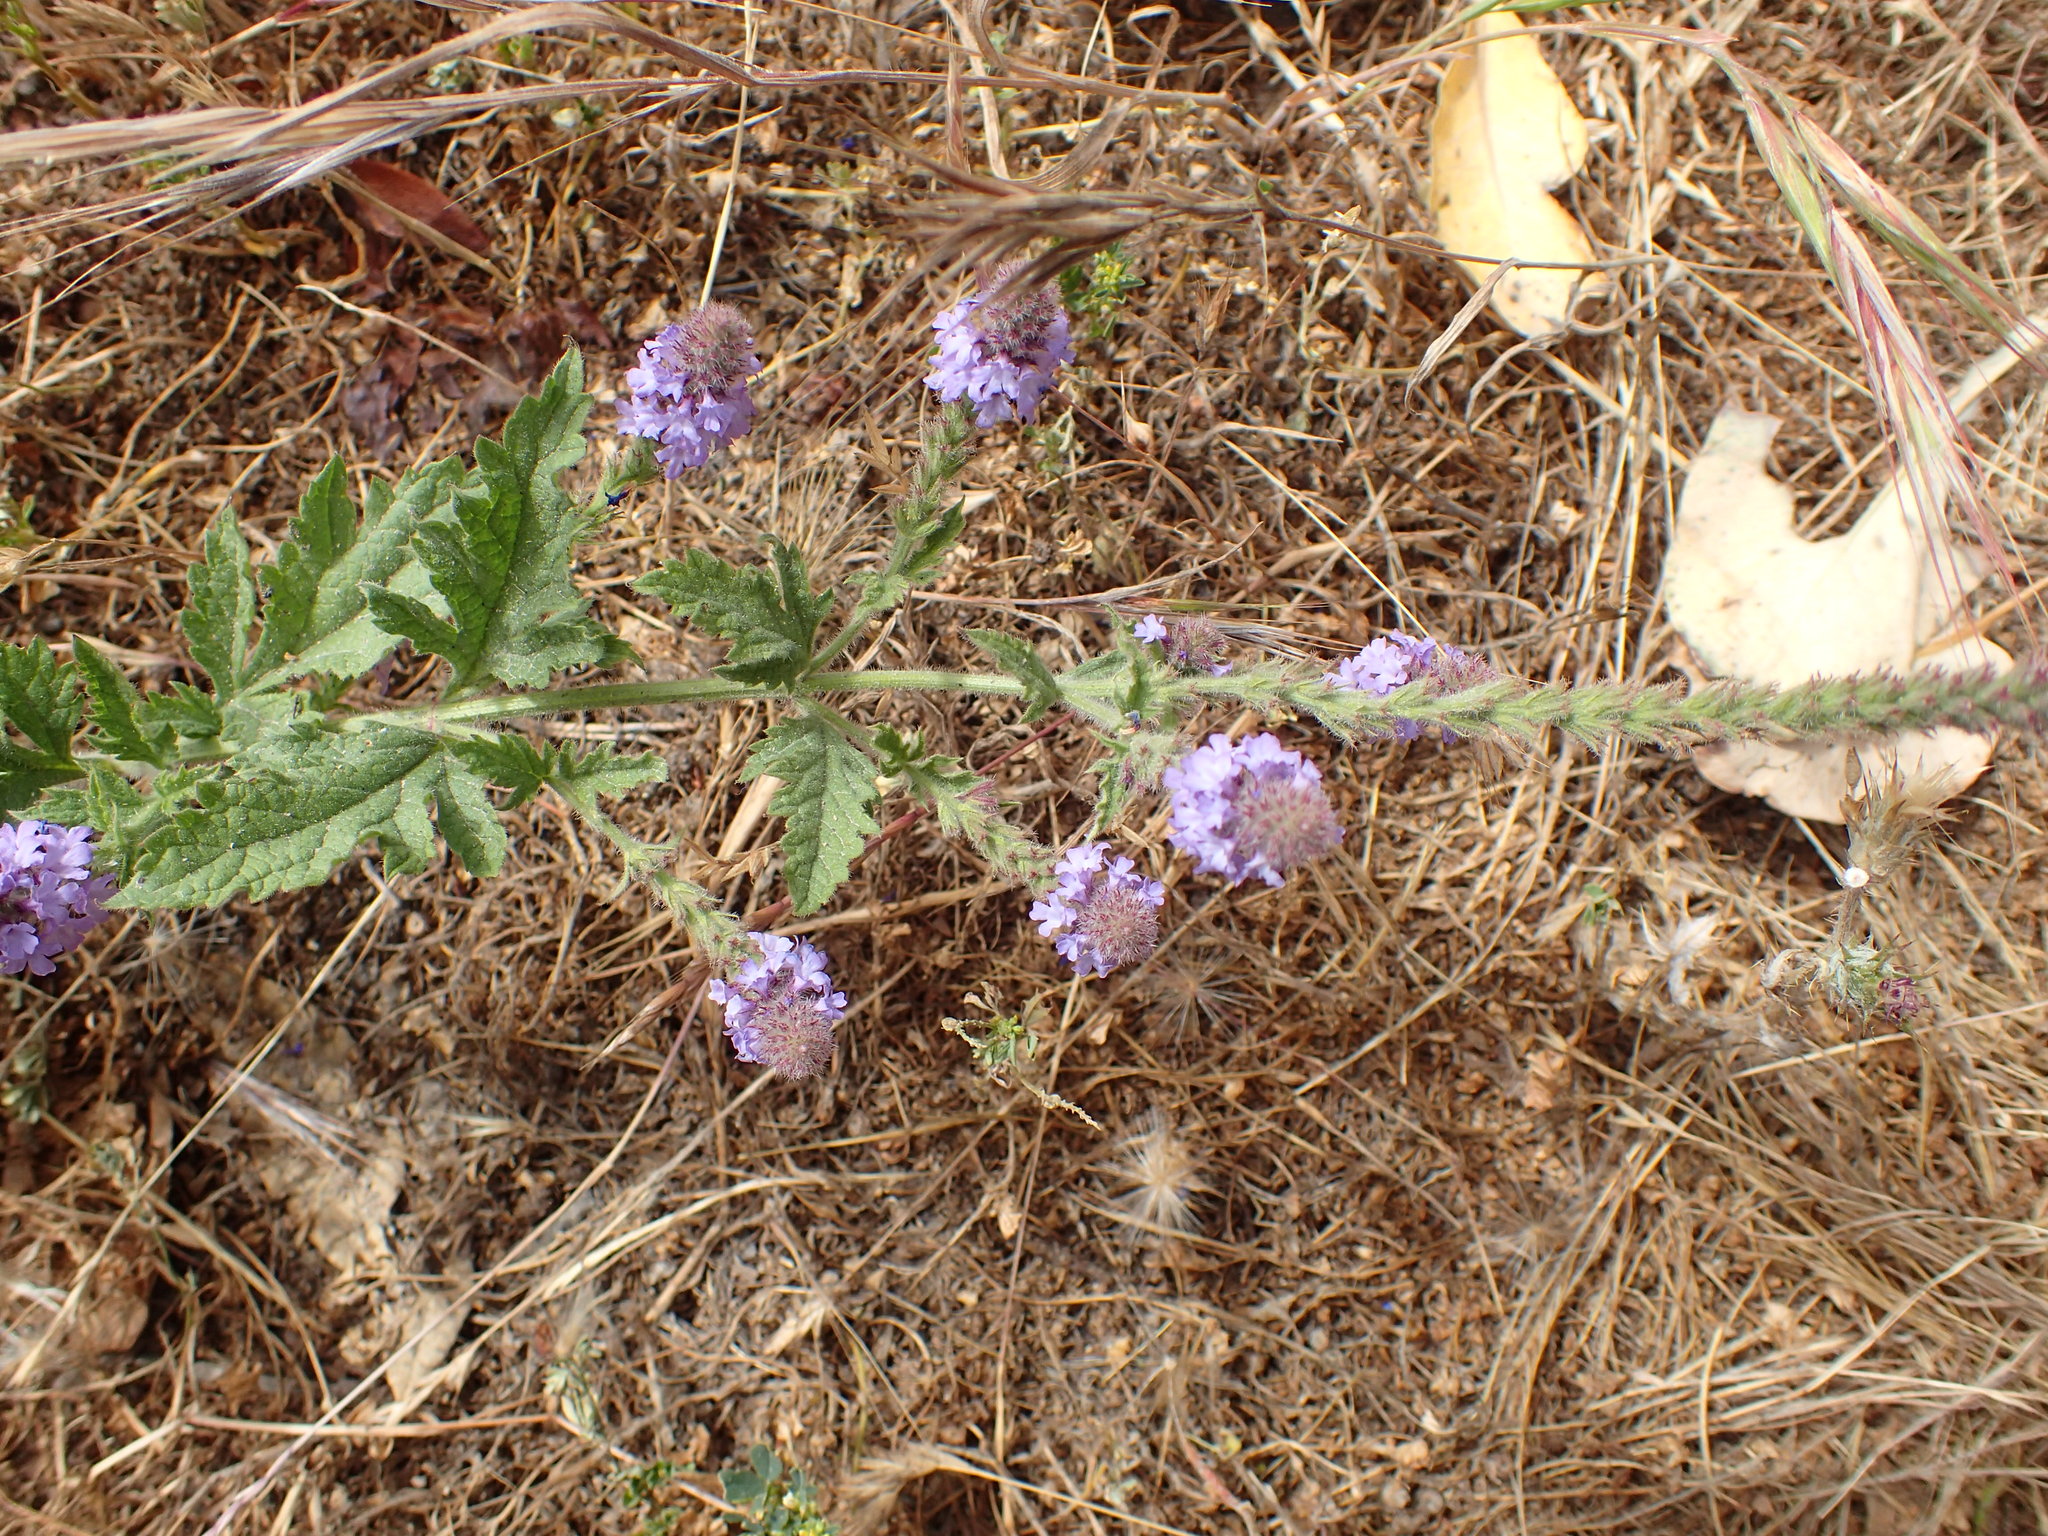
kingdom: Plantae
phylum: Tracheophyta
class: Magnoliopsida
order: Lamiales
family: Verbenaceae
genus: Verbena
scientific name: Verbena lasiostachys
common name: Vervain
